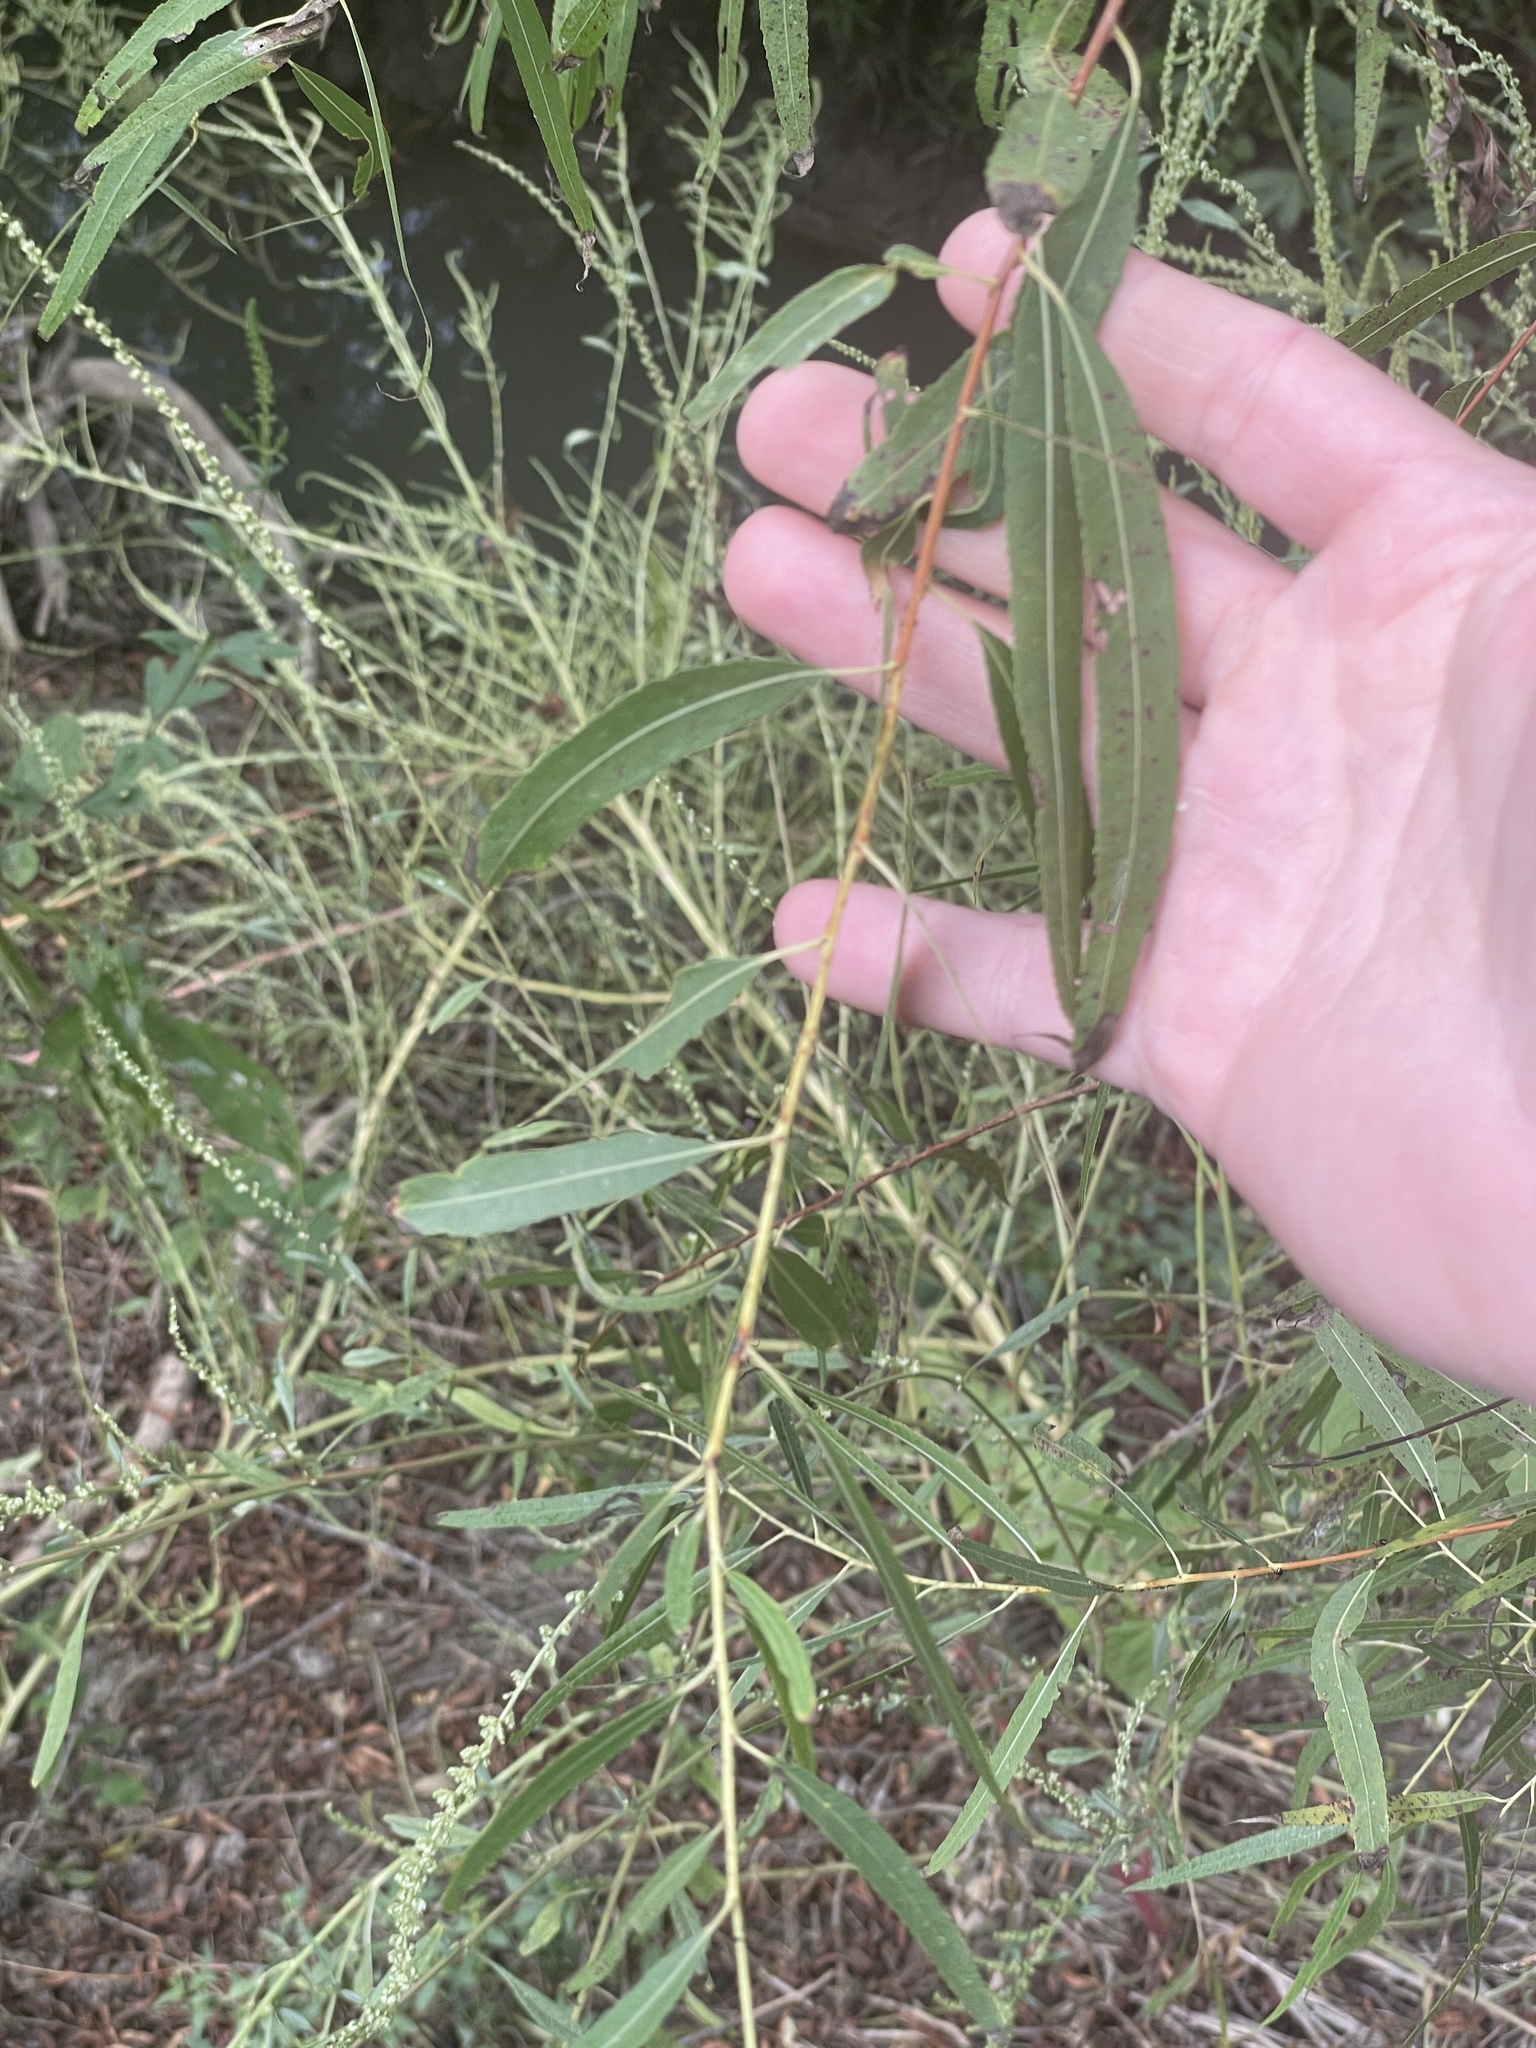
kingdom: Plantae
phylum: Tracheophyta
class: Magnoliopsida
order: Malpighiales
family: Salicaceae
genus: Salix
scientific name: Salix nigra
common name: Black willow
